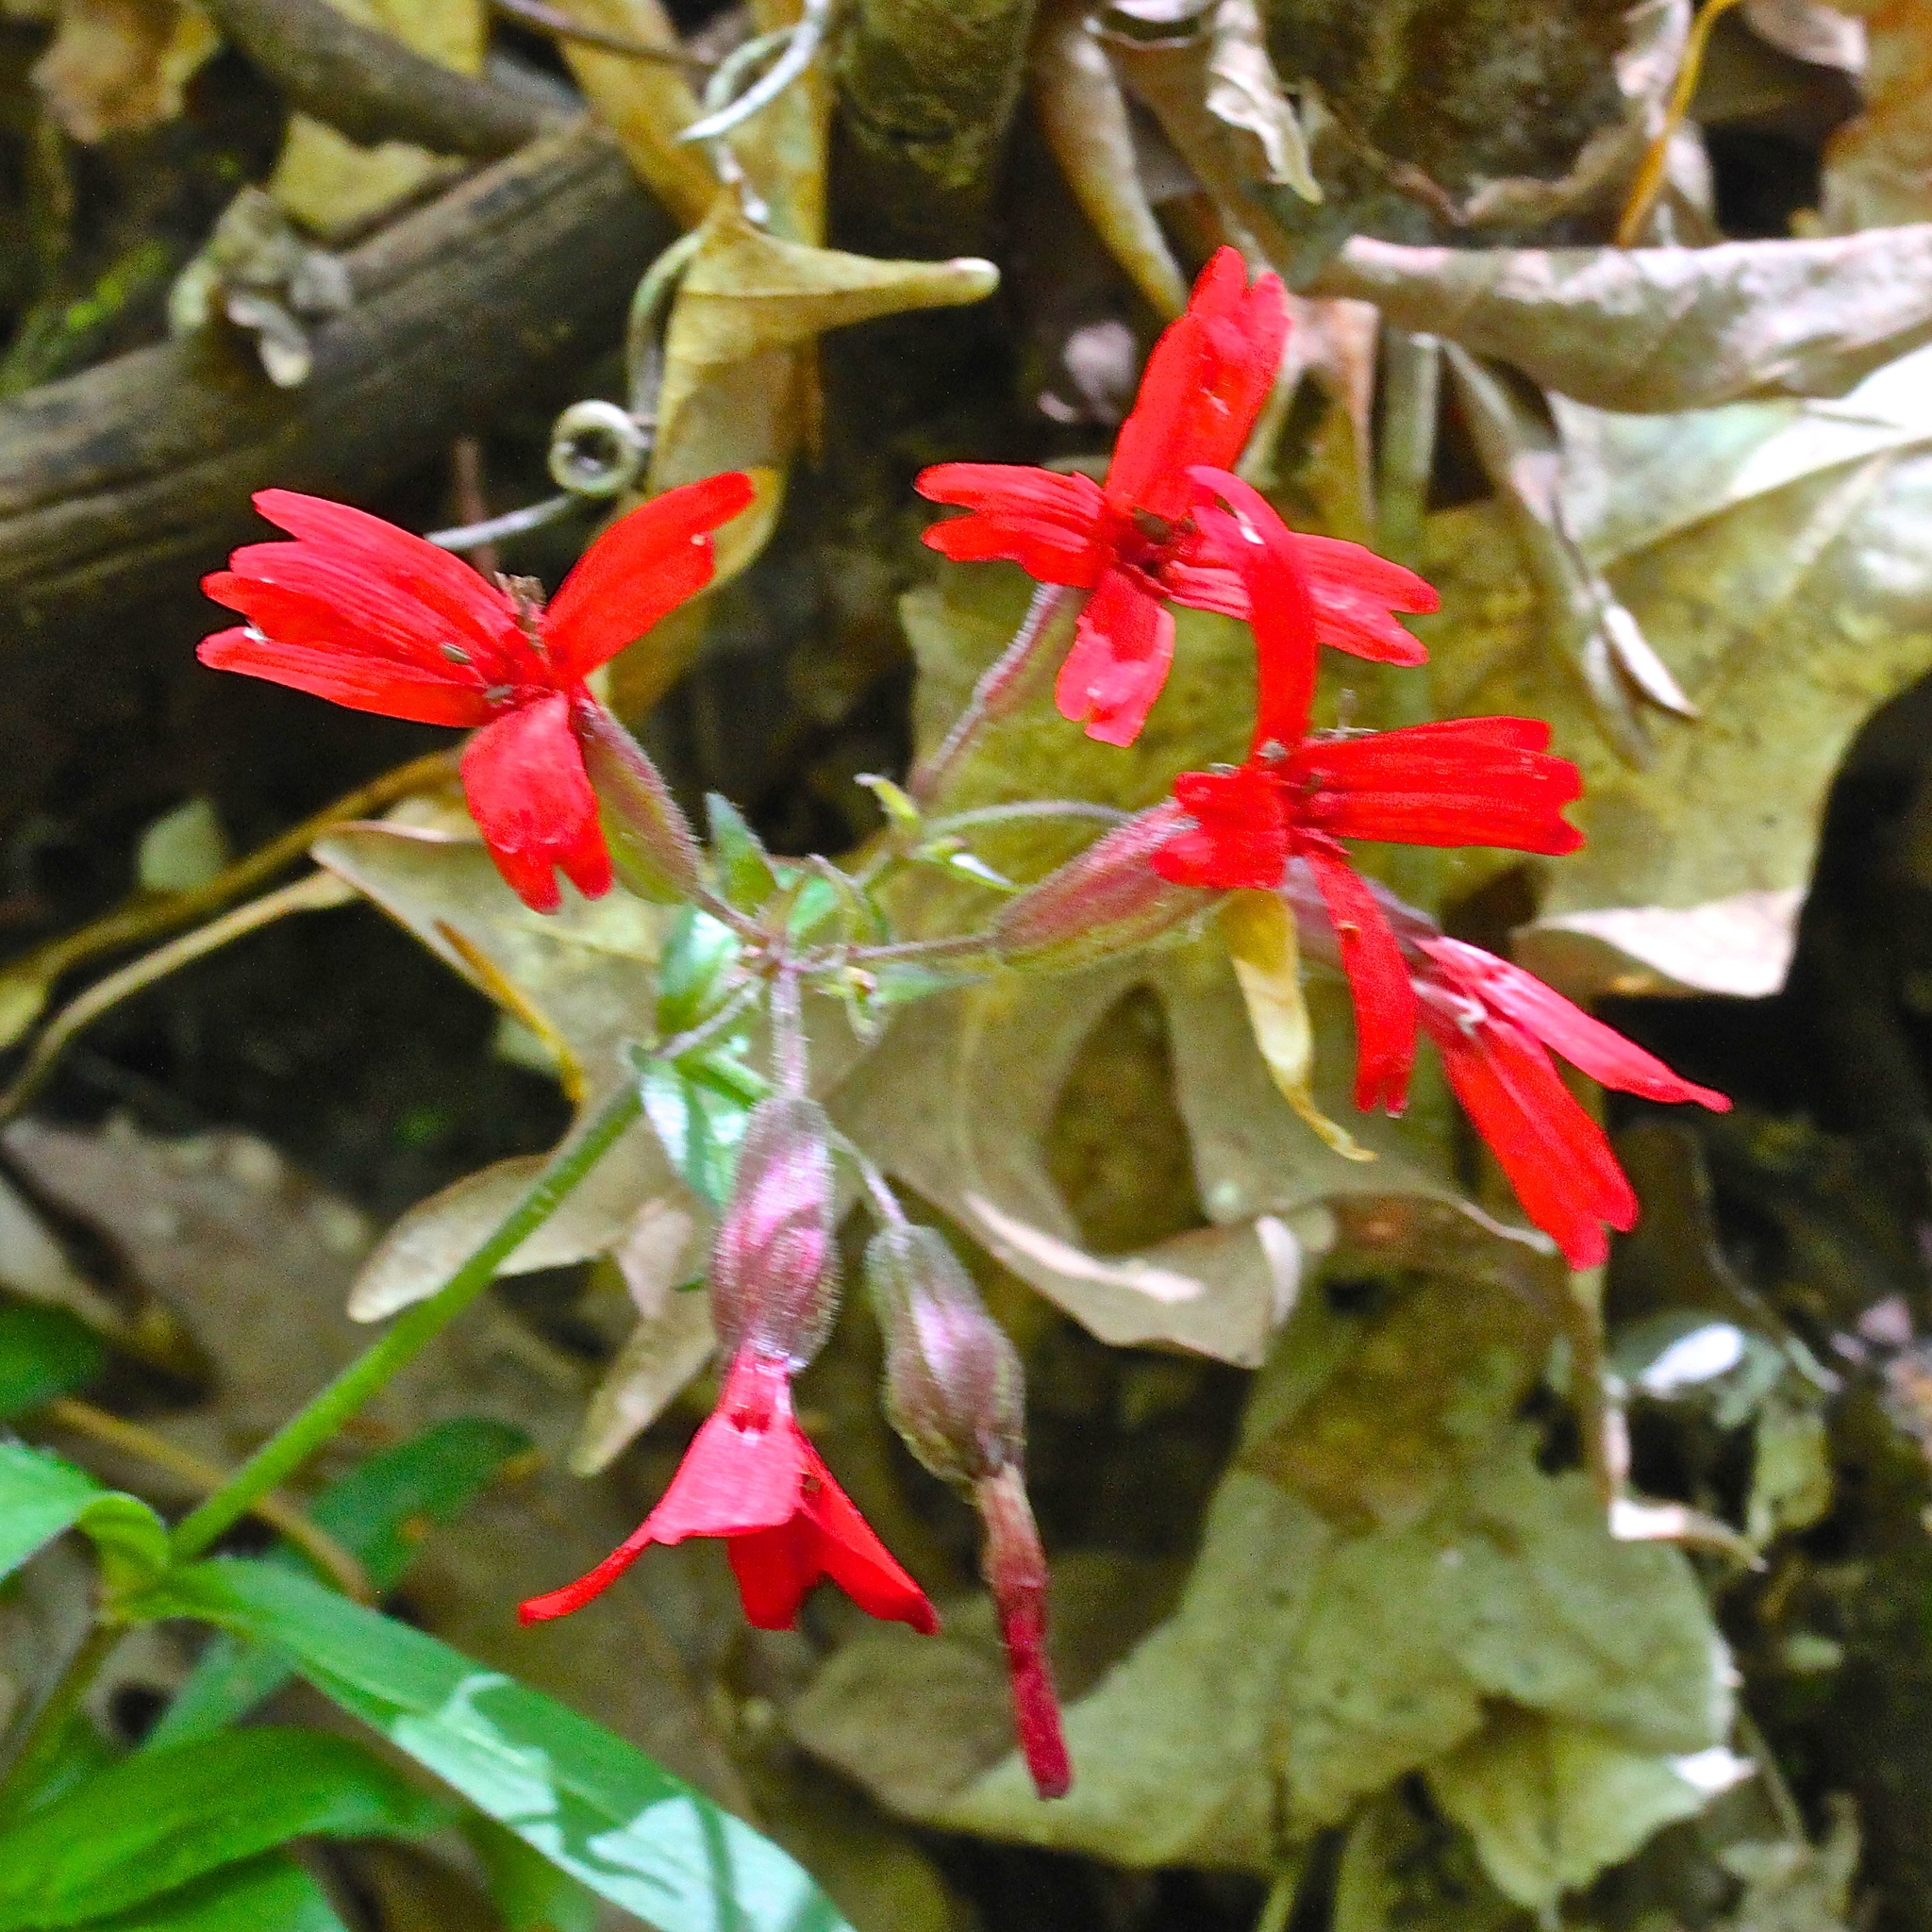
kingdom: Plantae
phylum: Tracheophyta
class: Magnoliopsida
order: Caryophyllales
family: Caryophyllaceae
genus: Silene
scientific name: Silene virginica
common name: Fire-pink
